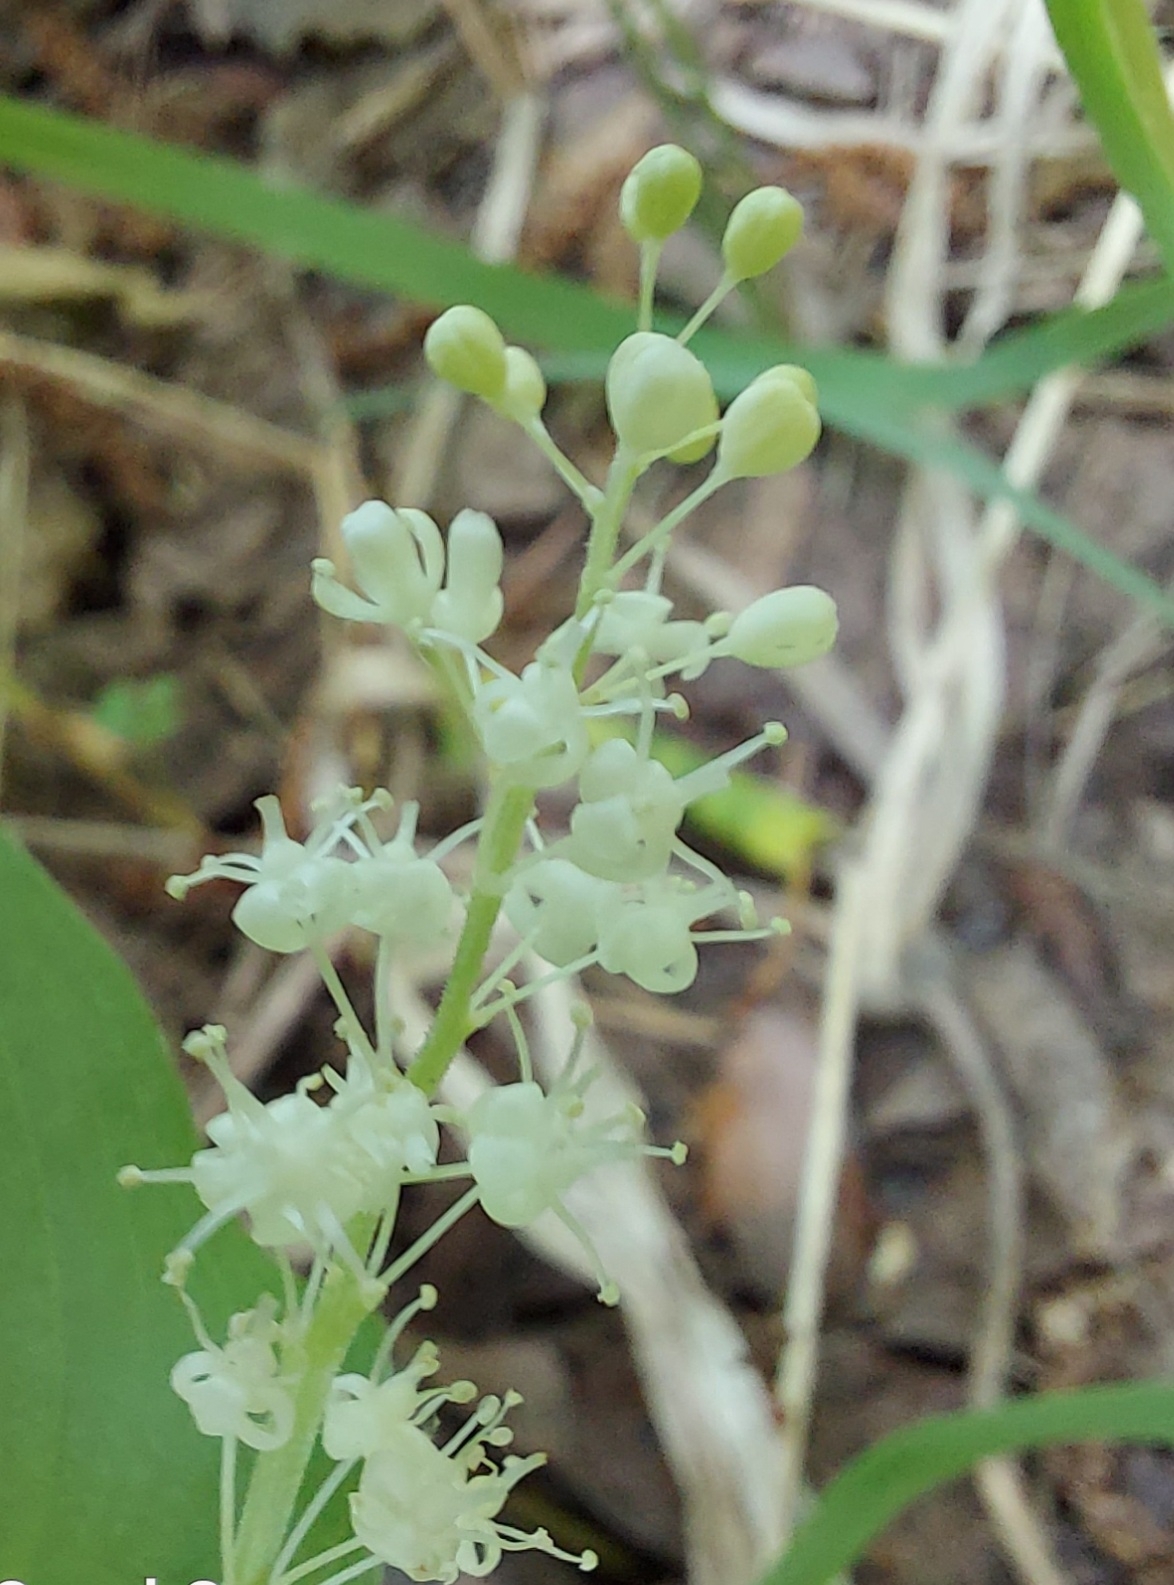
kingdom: Plantae
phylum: Tracheophyta
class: Liliopsida
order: Asparagales
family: Asparagaceae
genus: Maianthemum
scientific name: Maianthemum bifolium
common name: May lily
